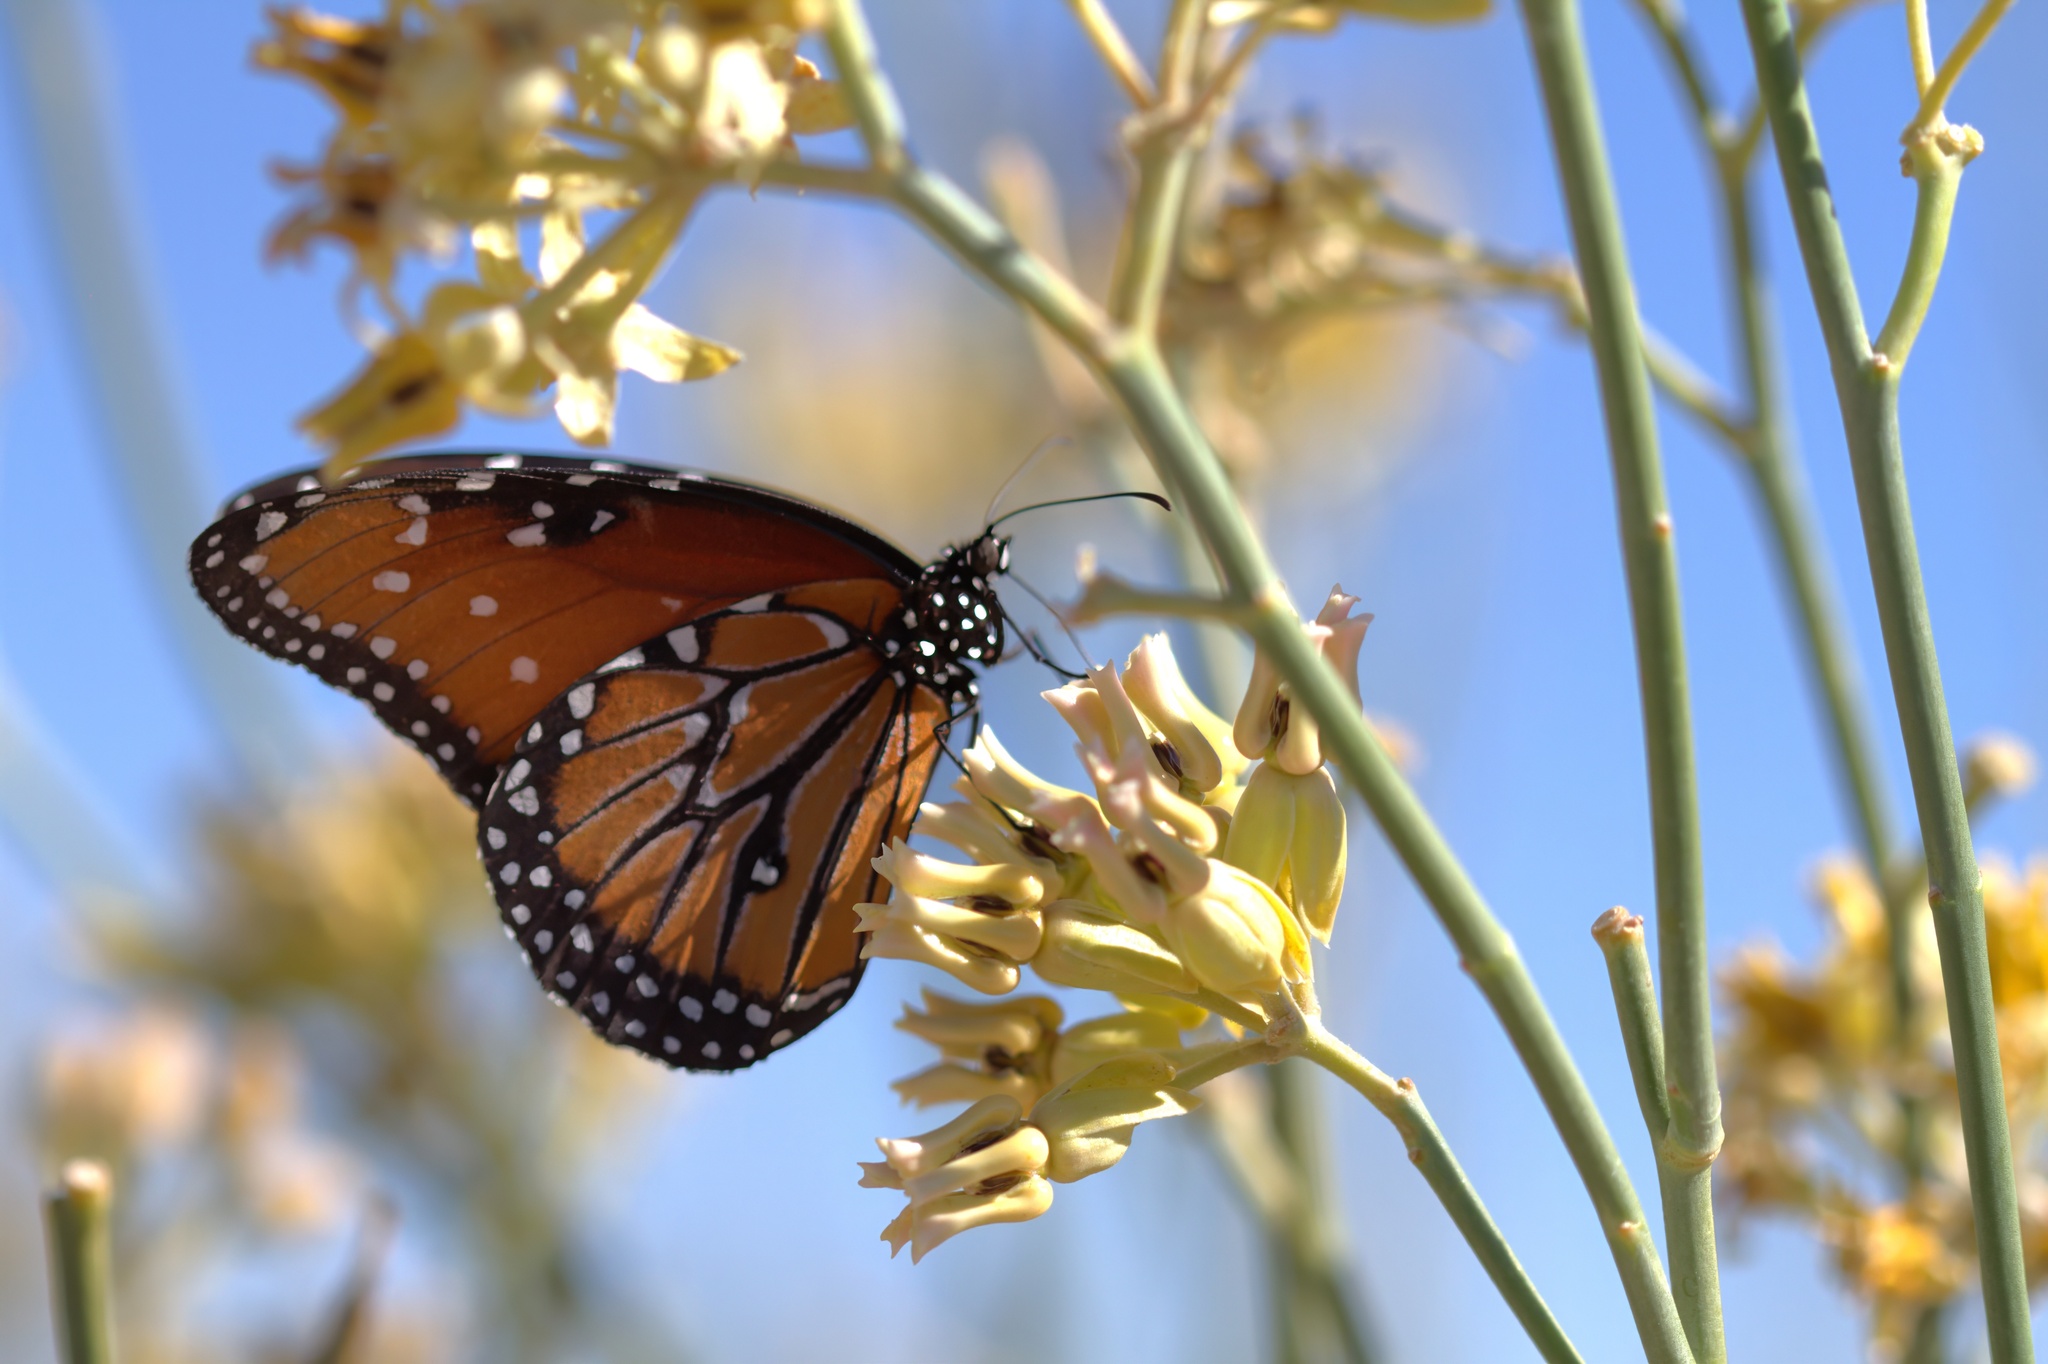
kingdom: Animalia
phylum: Arthropoda
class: Insecta
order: Lepidoptera
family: Nymphalidae
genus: Danaus
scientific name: Danaus gilippus
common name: Queen
